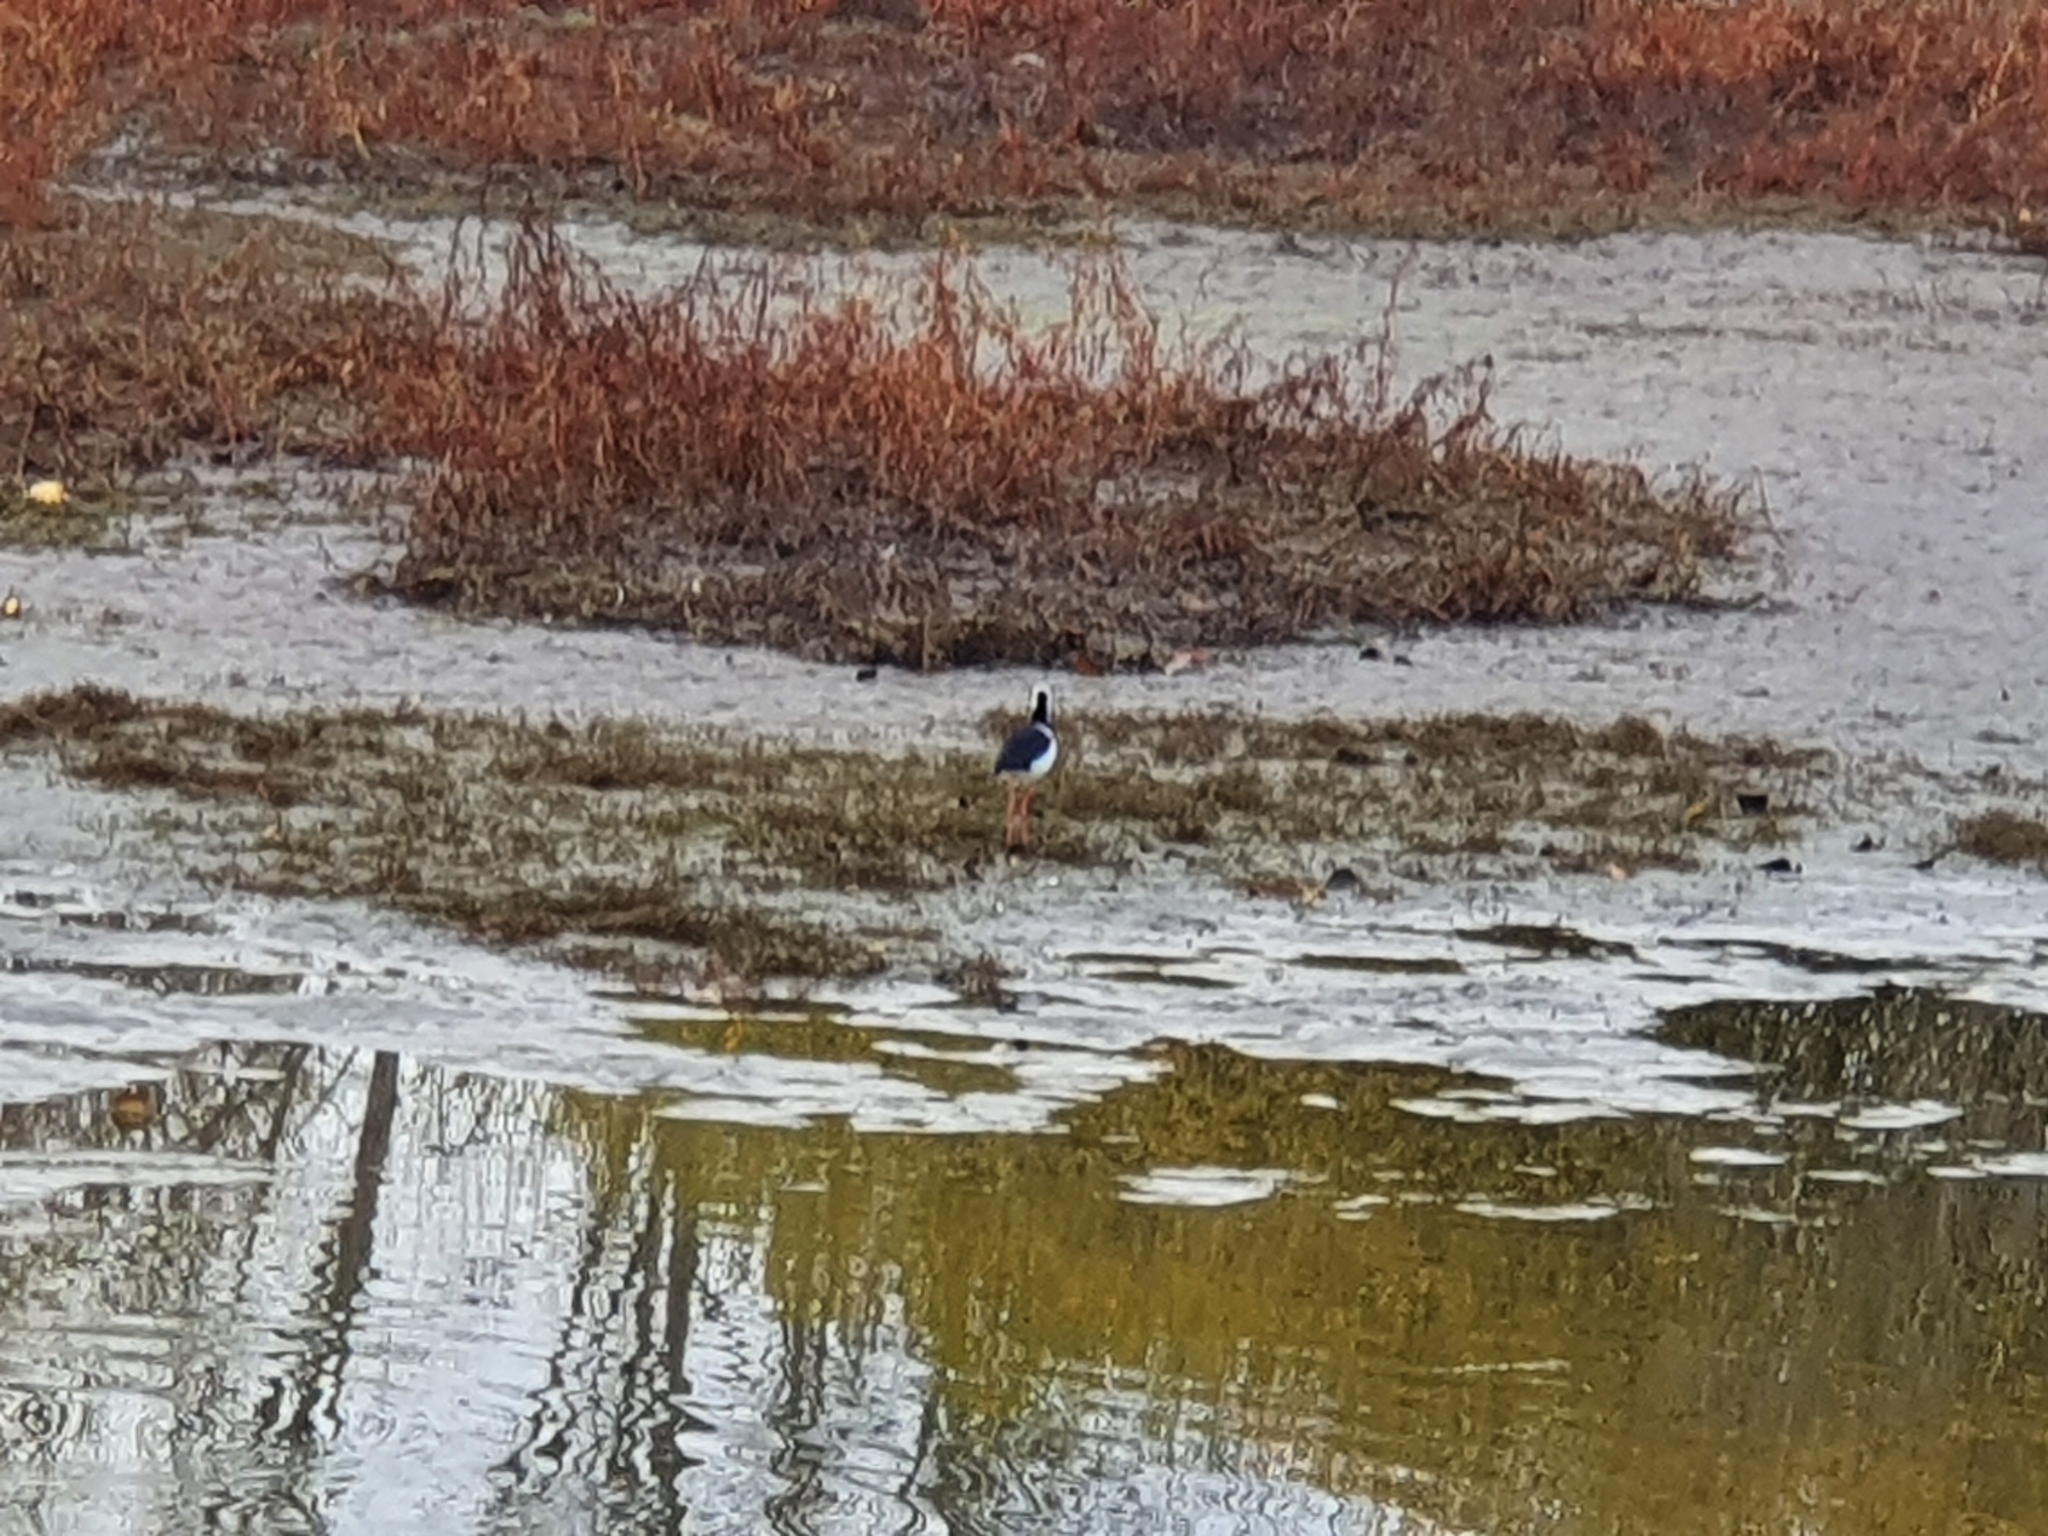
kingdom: Animalia
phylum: Chordata
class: Aves
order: Charadriiformes
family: Recurvirostridae
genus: Himantopus
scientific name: Himantopus leucocephalus
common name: White-headed stilt
